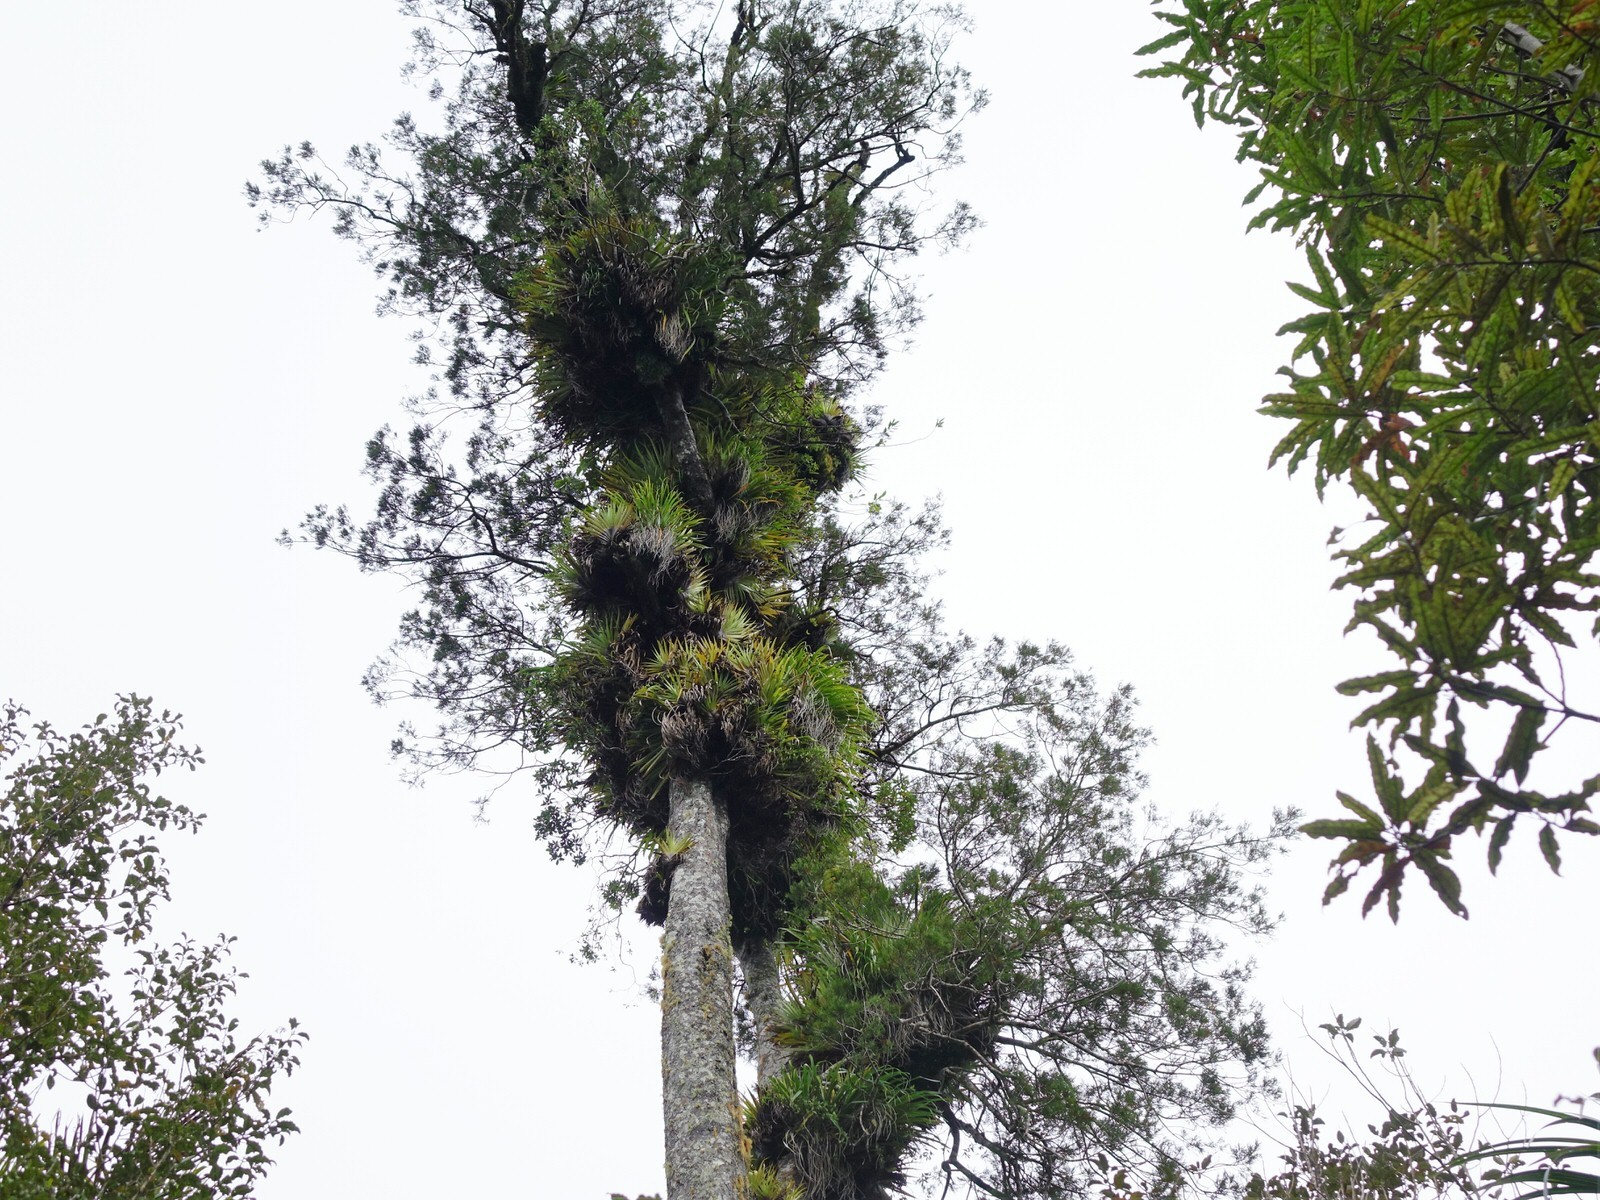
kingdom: Plantae
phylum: Tracheophyta
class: Liliopsida
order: Asparagales
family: Asteliaceae
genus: Astelia
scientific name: Astelia hastata
